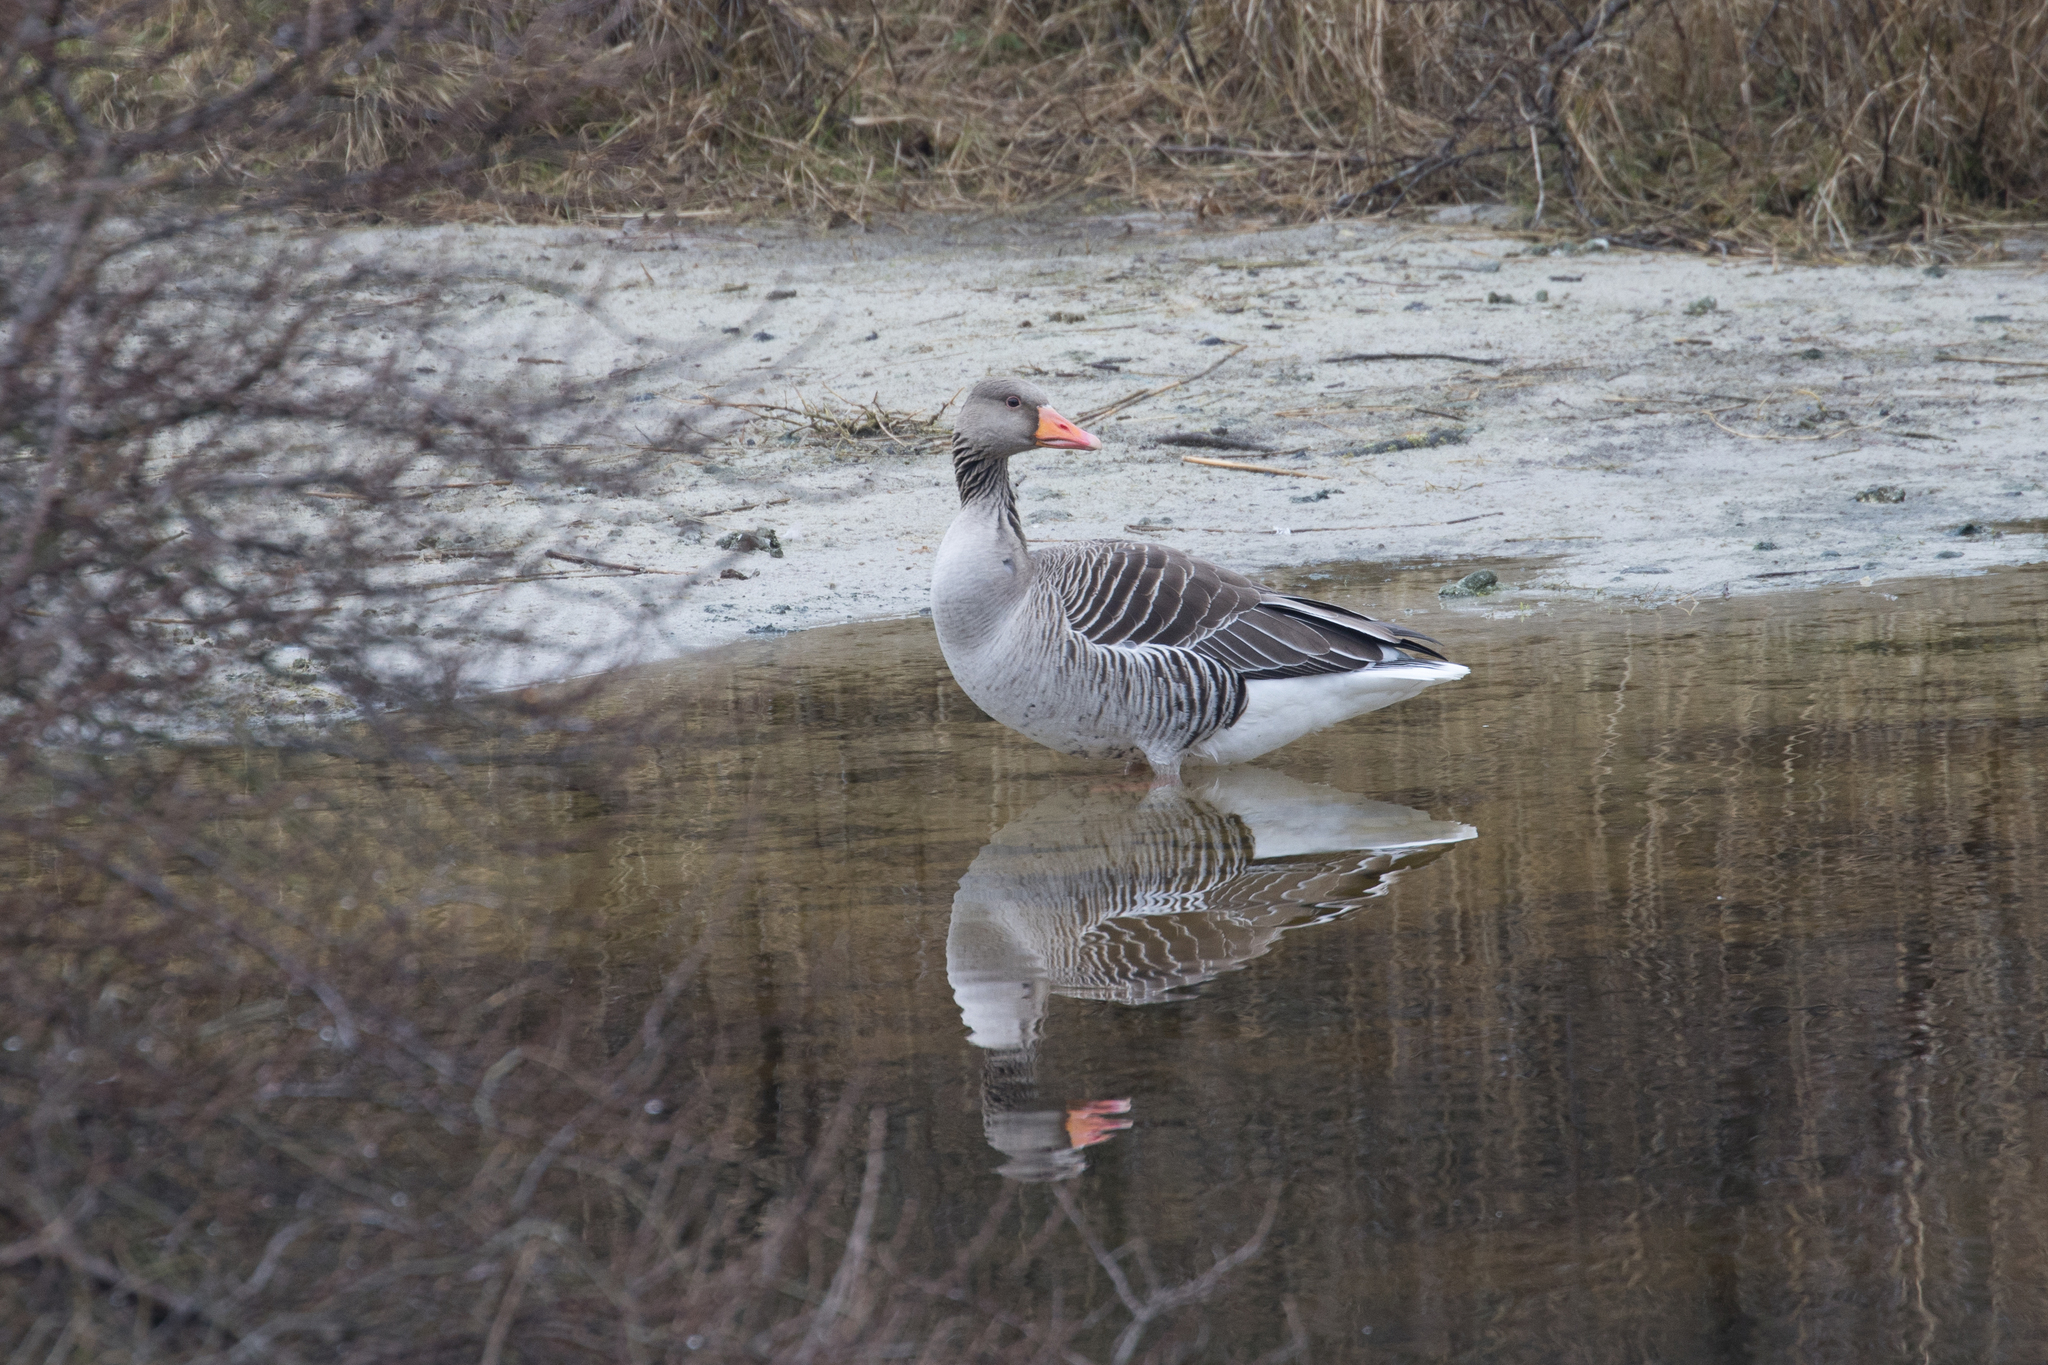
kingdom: Animalia
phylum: Chordata
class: Aves
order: Anseriformes
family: Anatidae
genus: Anser
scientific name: Anser anser
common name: Greylag goose
